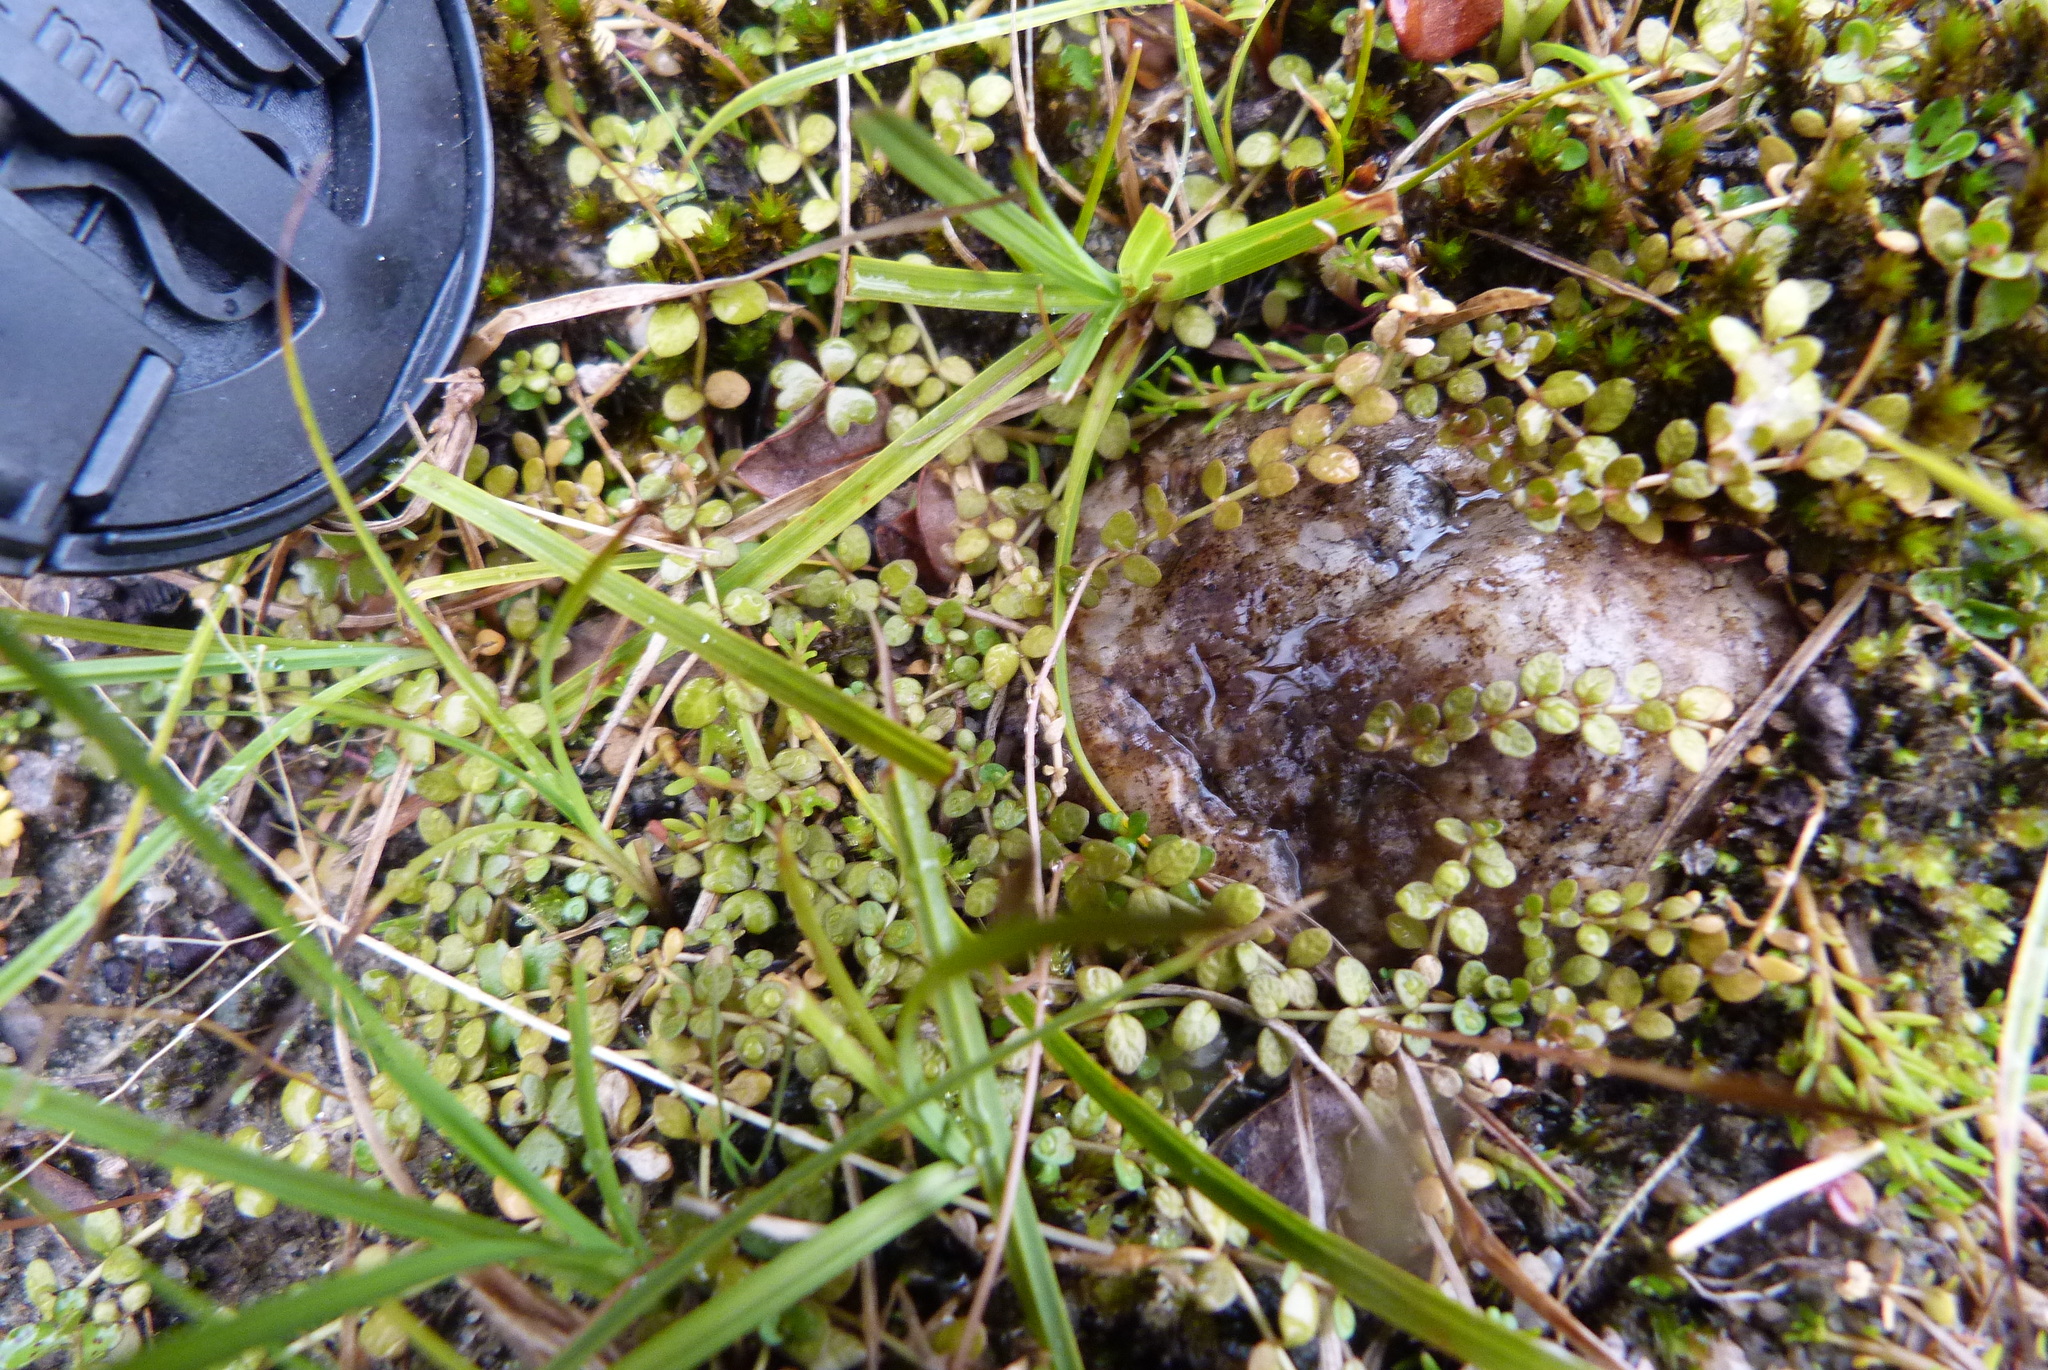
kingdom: Plantae
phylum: Tracheophyta
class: Magnoliopsida
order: Myrtales
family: Onagraceae
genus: Epilobium
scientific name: Epilobium komarovianum
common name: Bronzy willowherb
